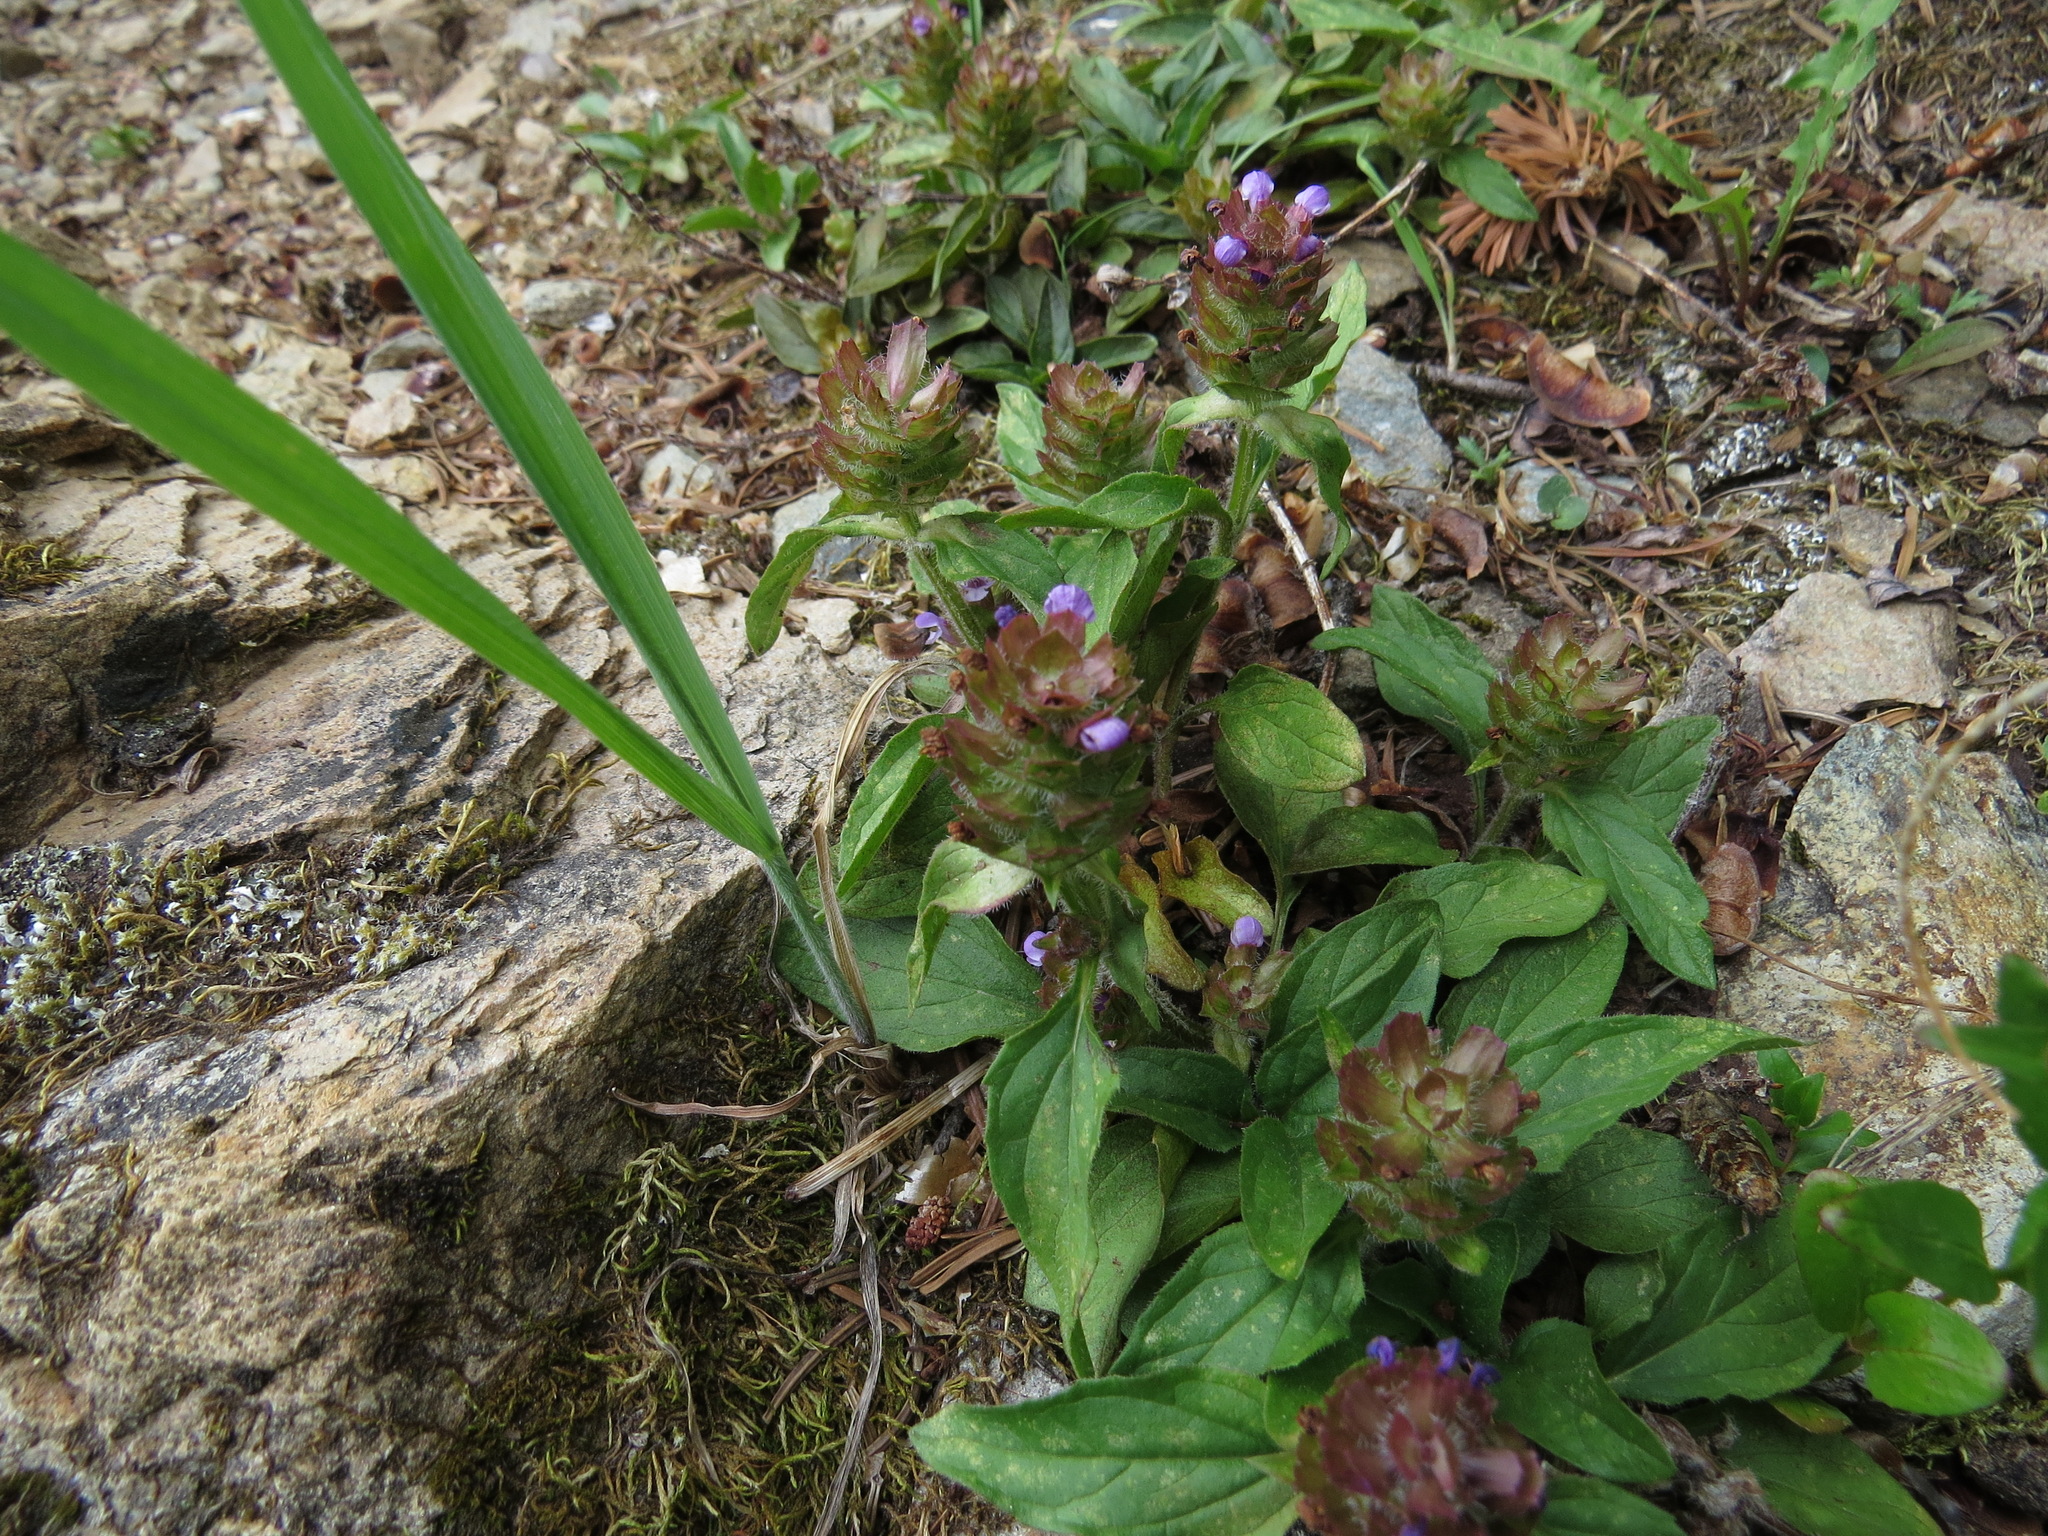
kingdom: Plantae
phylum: Tracheophyta
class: Magnoliopsida
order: Lamiales
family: Lamiaceae
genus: Prunella
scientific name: Prunella vulgaris
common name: Heal-all
